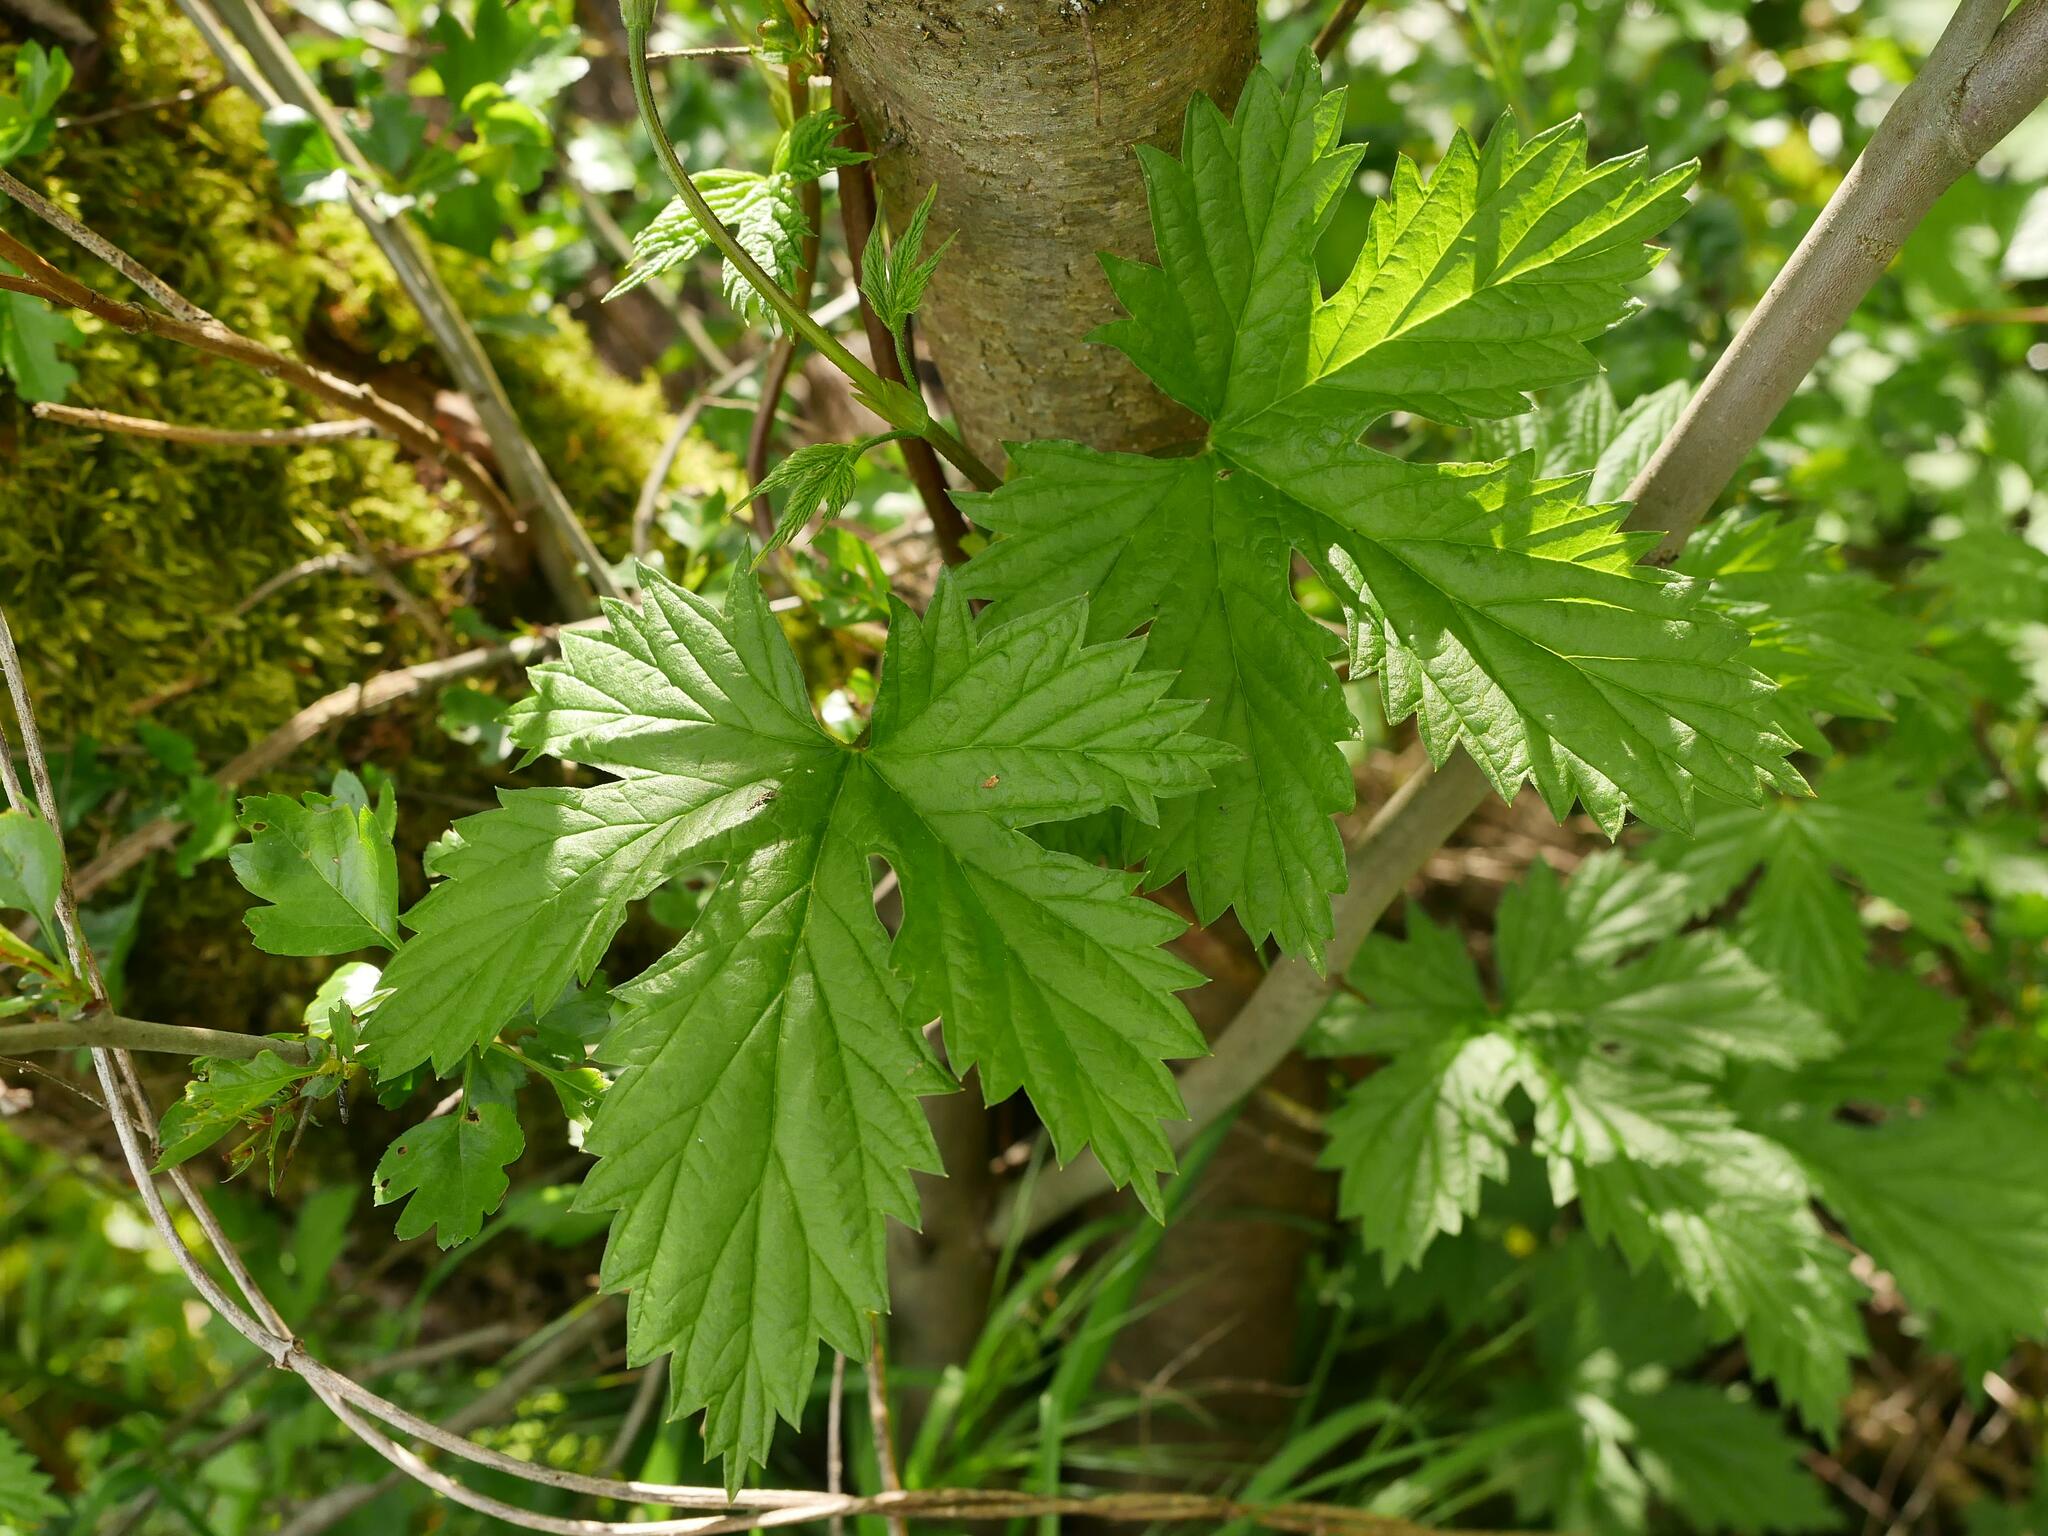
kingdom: Plantae
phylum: Tracheophyta
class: Magnoliopsida
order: Rosales
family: Cannabaceae
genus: Humulus
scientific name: Humulus lupulus
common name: Hop
